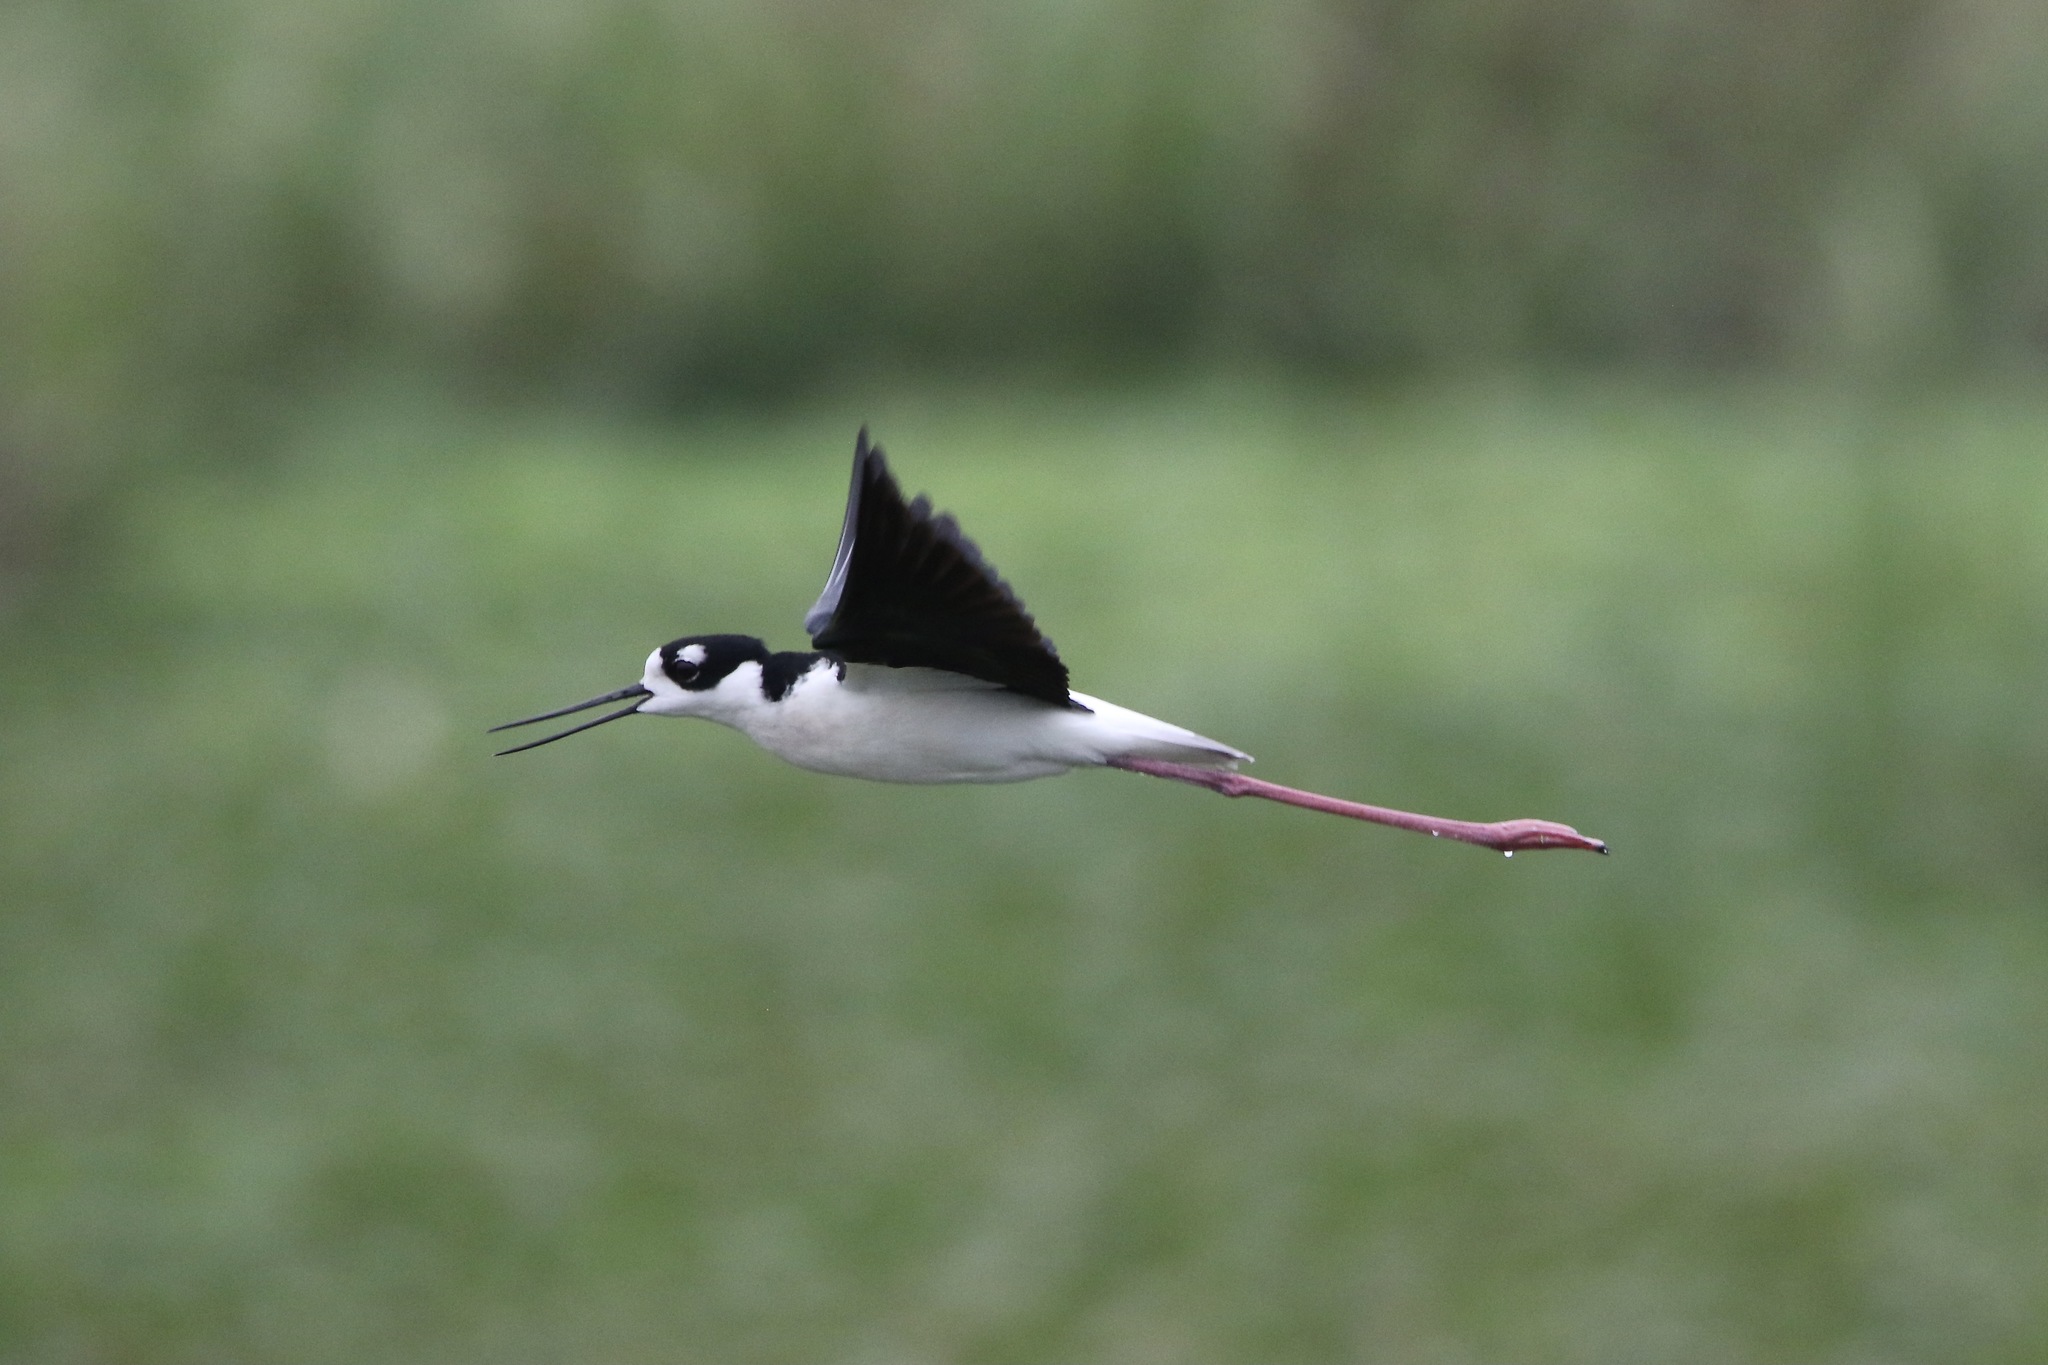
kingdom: Animalia
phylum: Chordata
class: Aves
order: Charadriiformes
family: Recurvirostridae
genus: Himantopus
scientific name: Himantopus mexicanus
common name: Black-necked stilt
